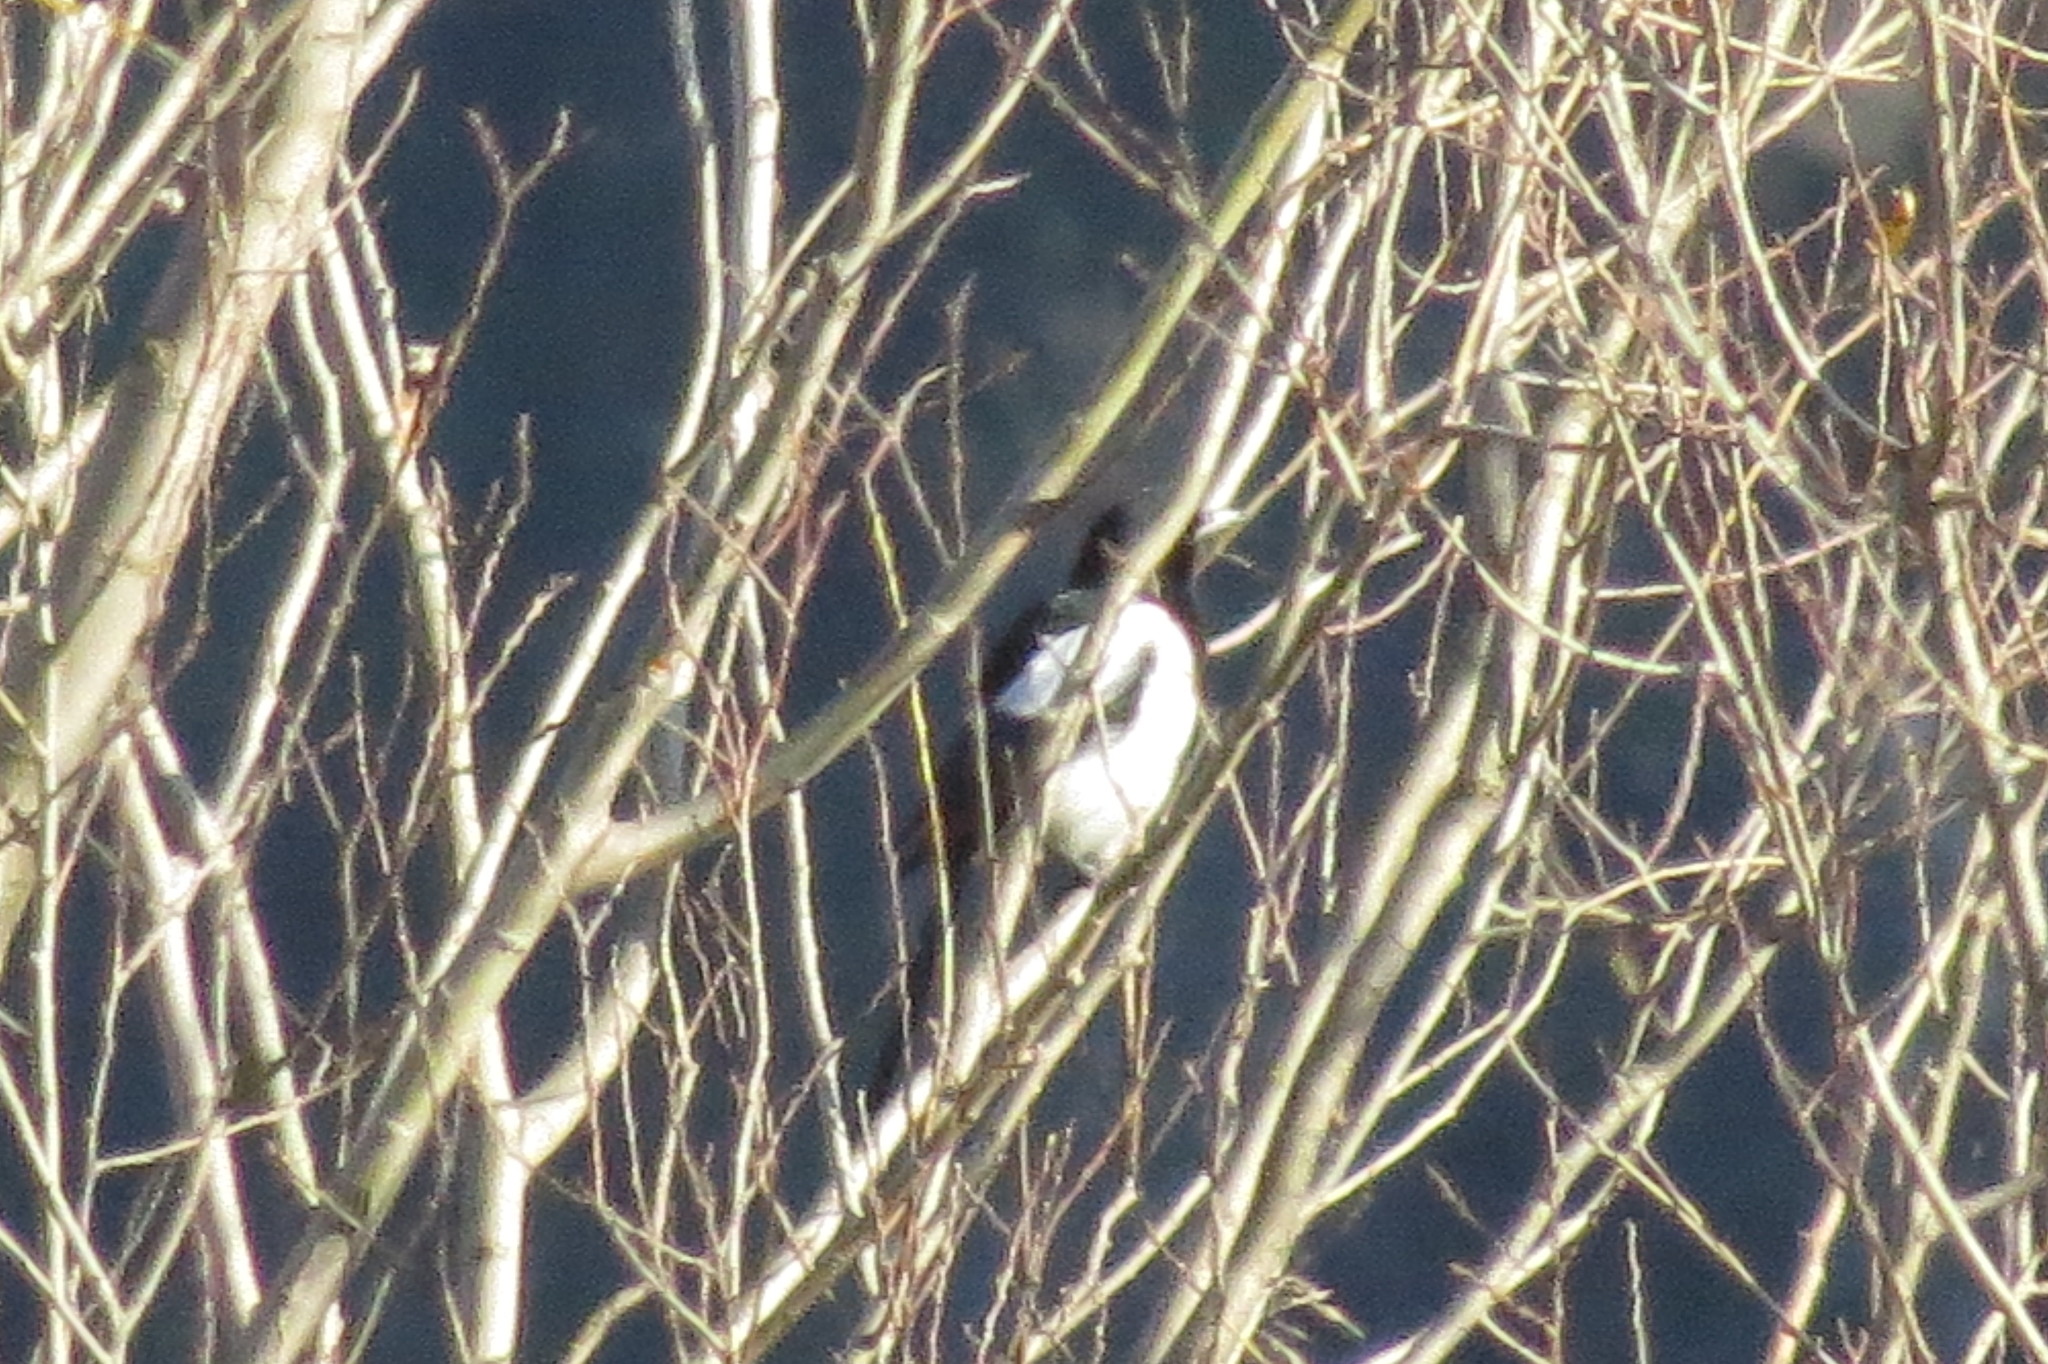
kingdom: Animalia
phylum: Chordata
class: Aves
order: Passeriformes
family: Corvidae
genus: Pica
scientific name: Pica pica
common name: Eurasian magpie
